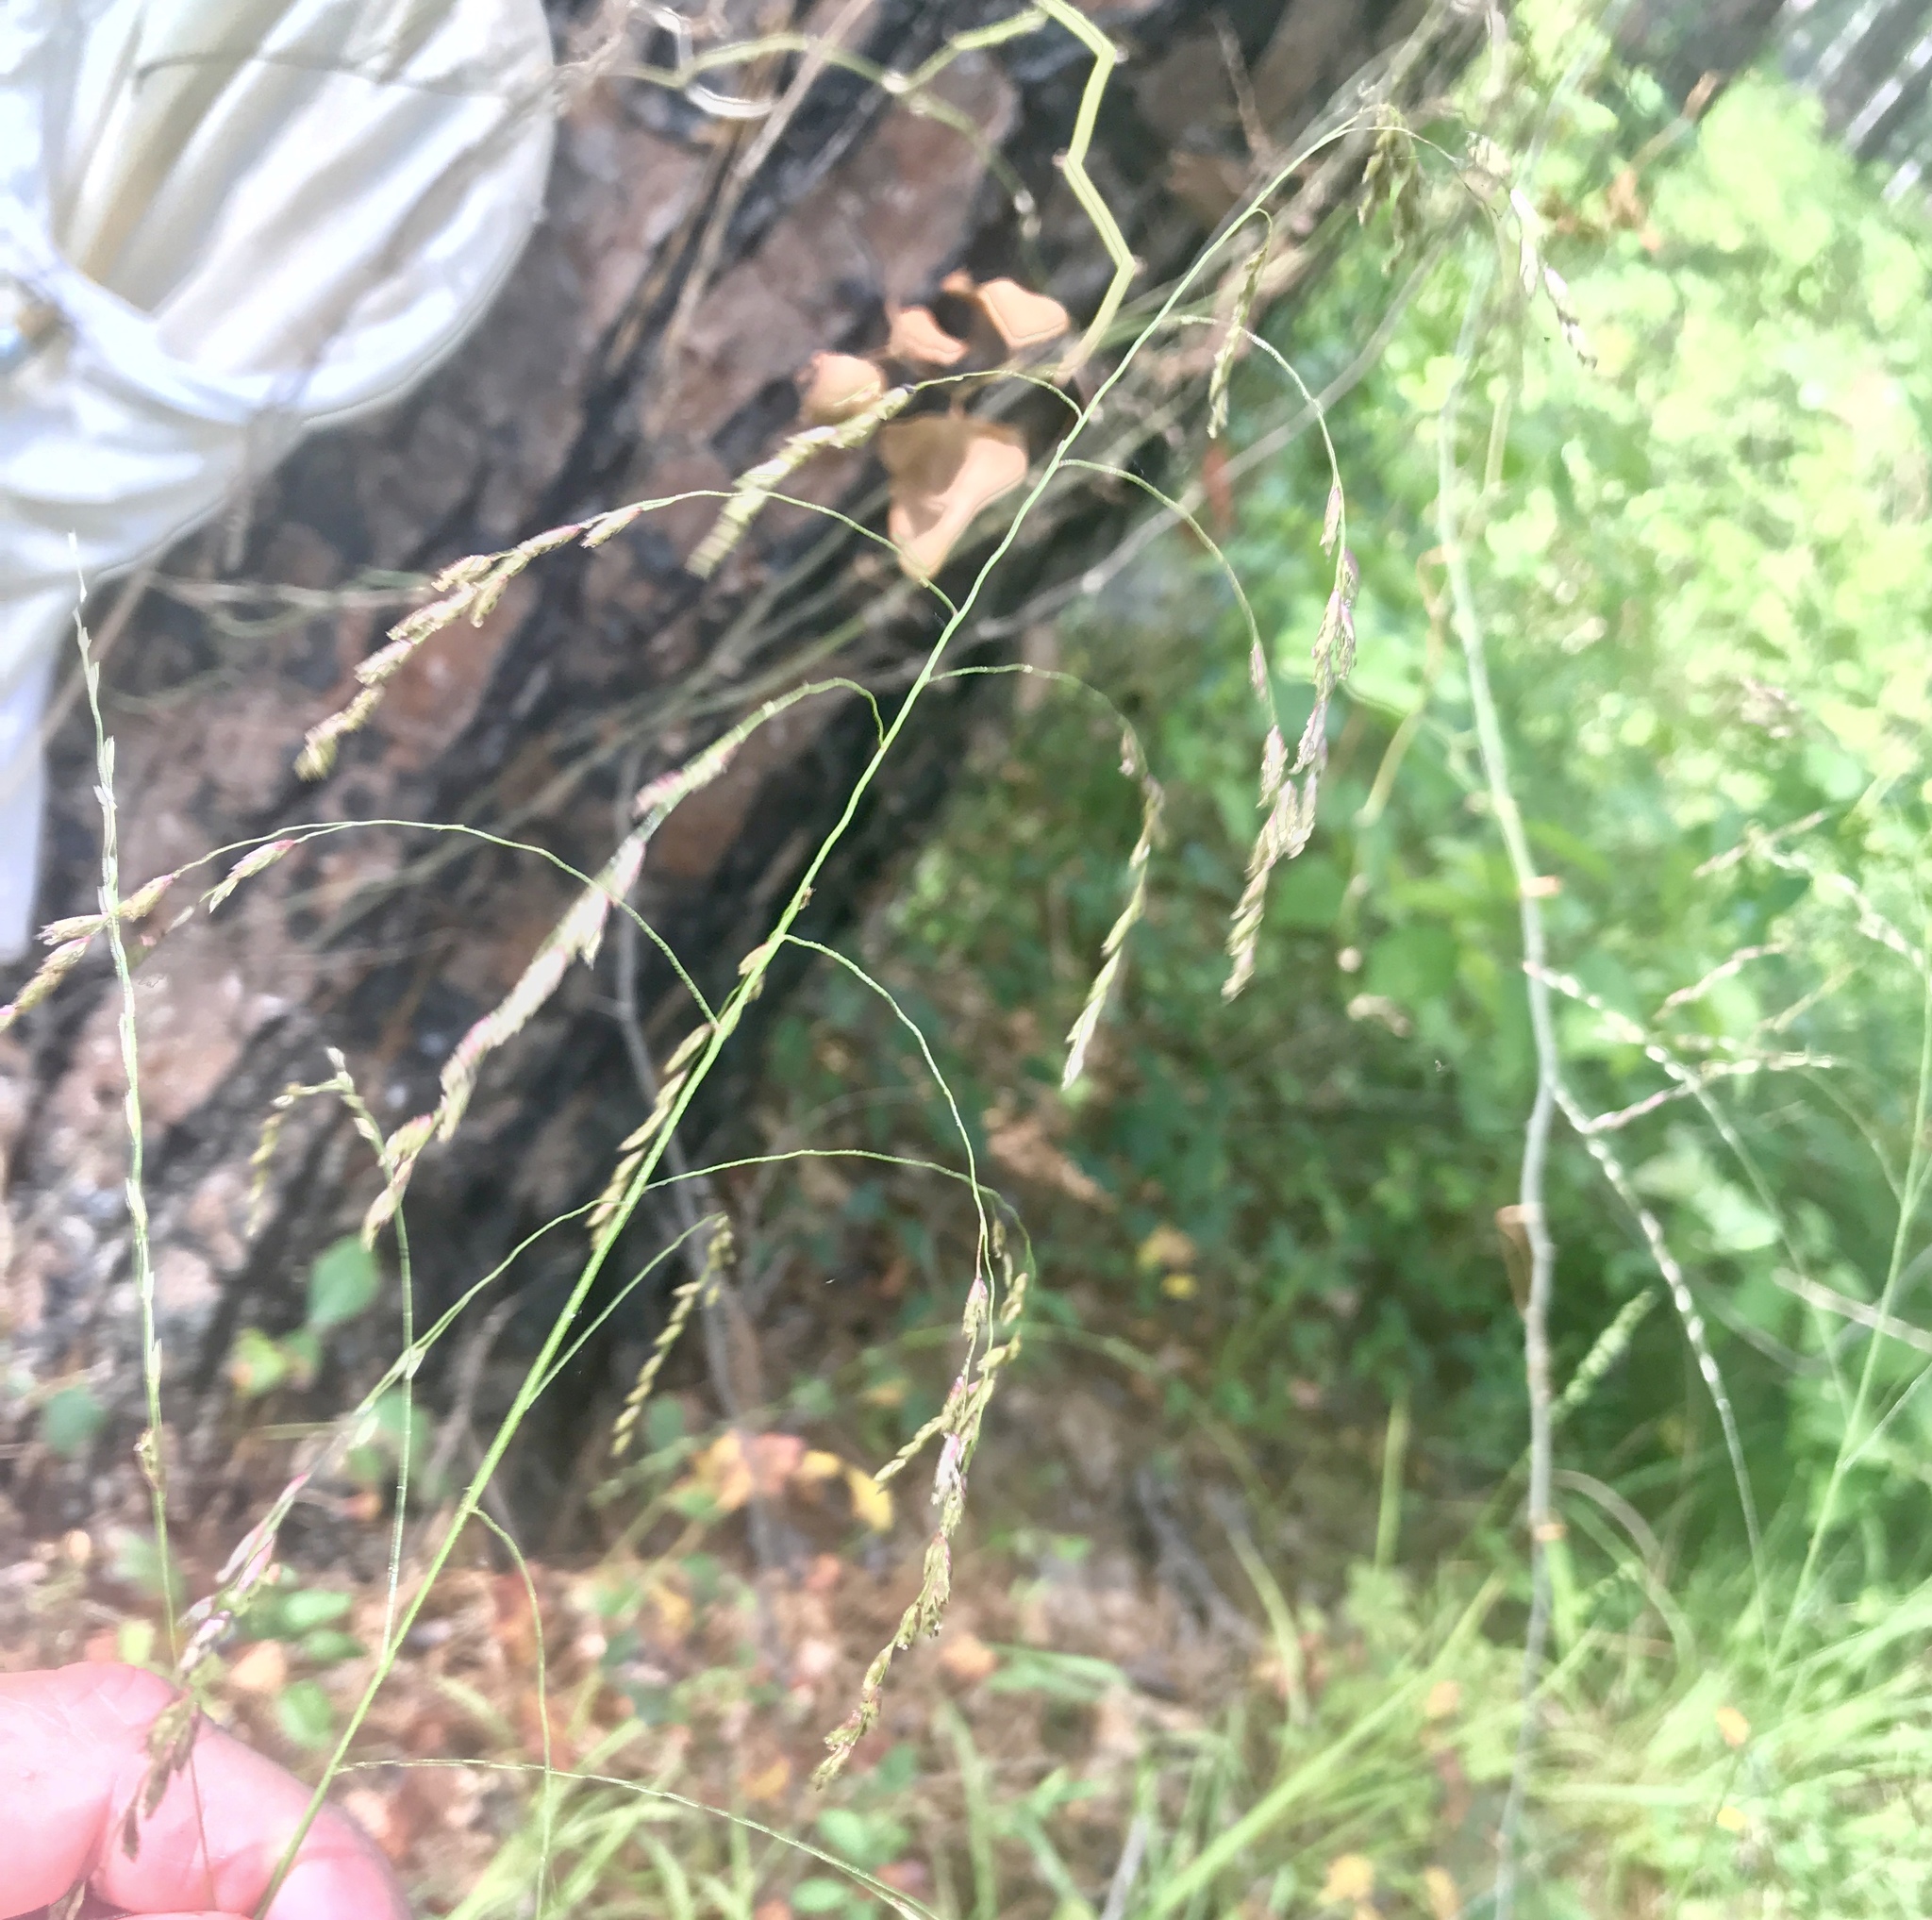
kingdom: Plantae
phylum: Tracheophyta
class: Liliopsida
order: Poales
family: Poaceae
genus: Tridens
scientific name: Tridens flavus
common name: Purpletop
